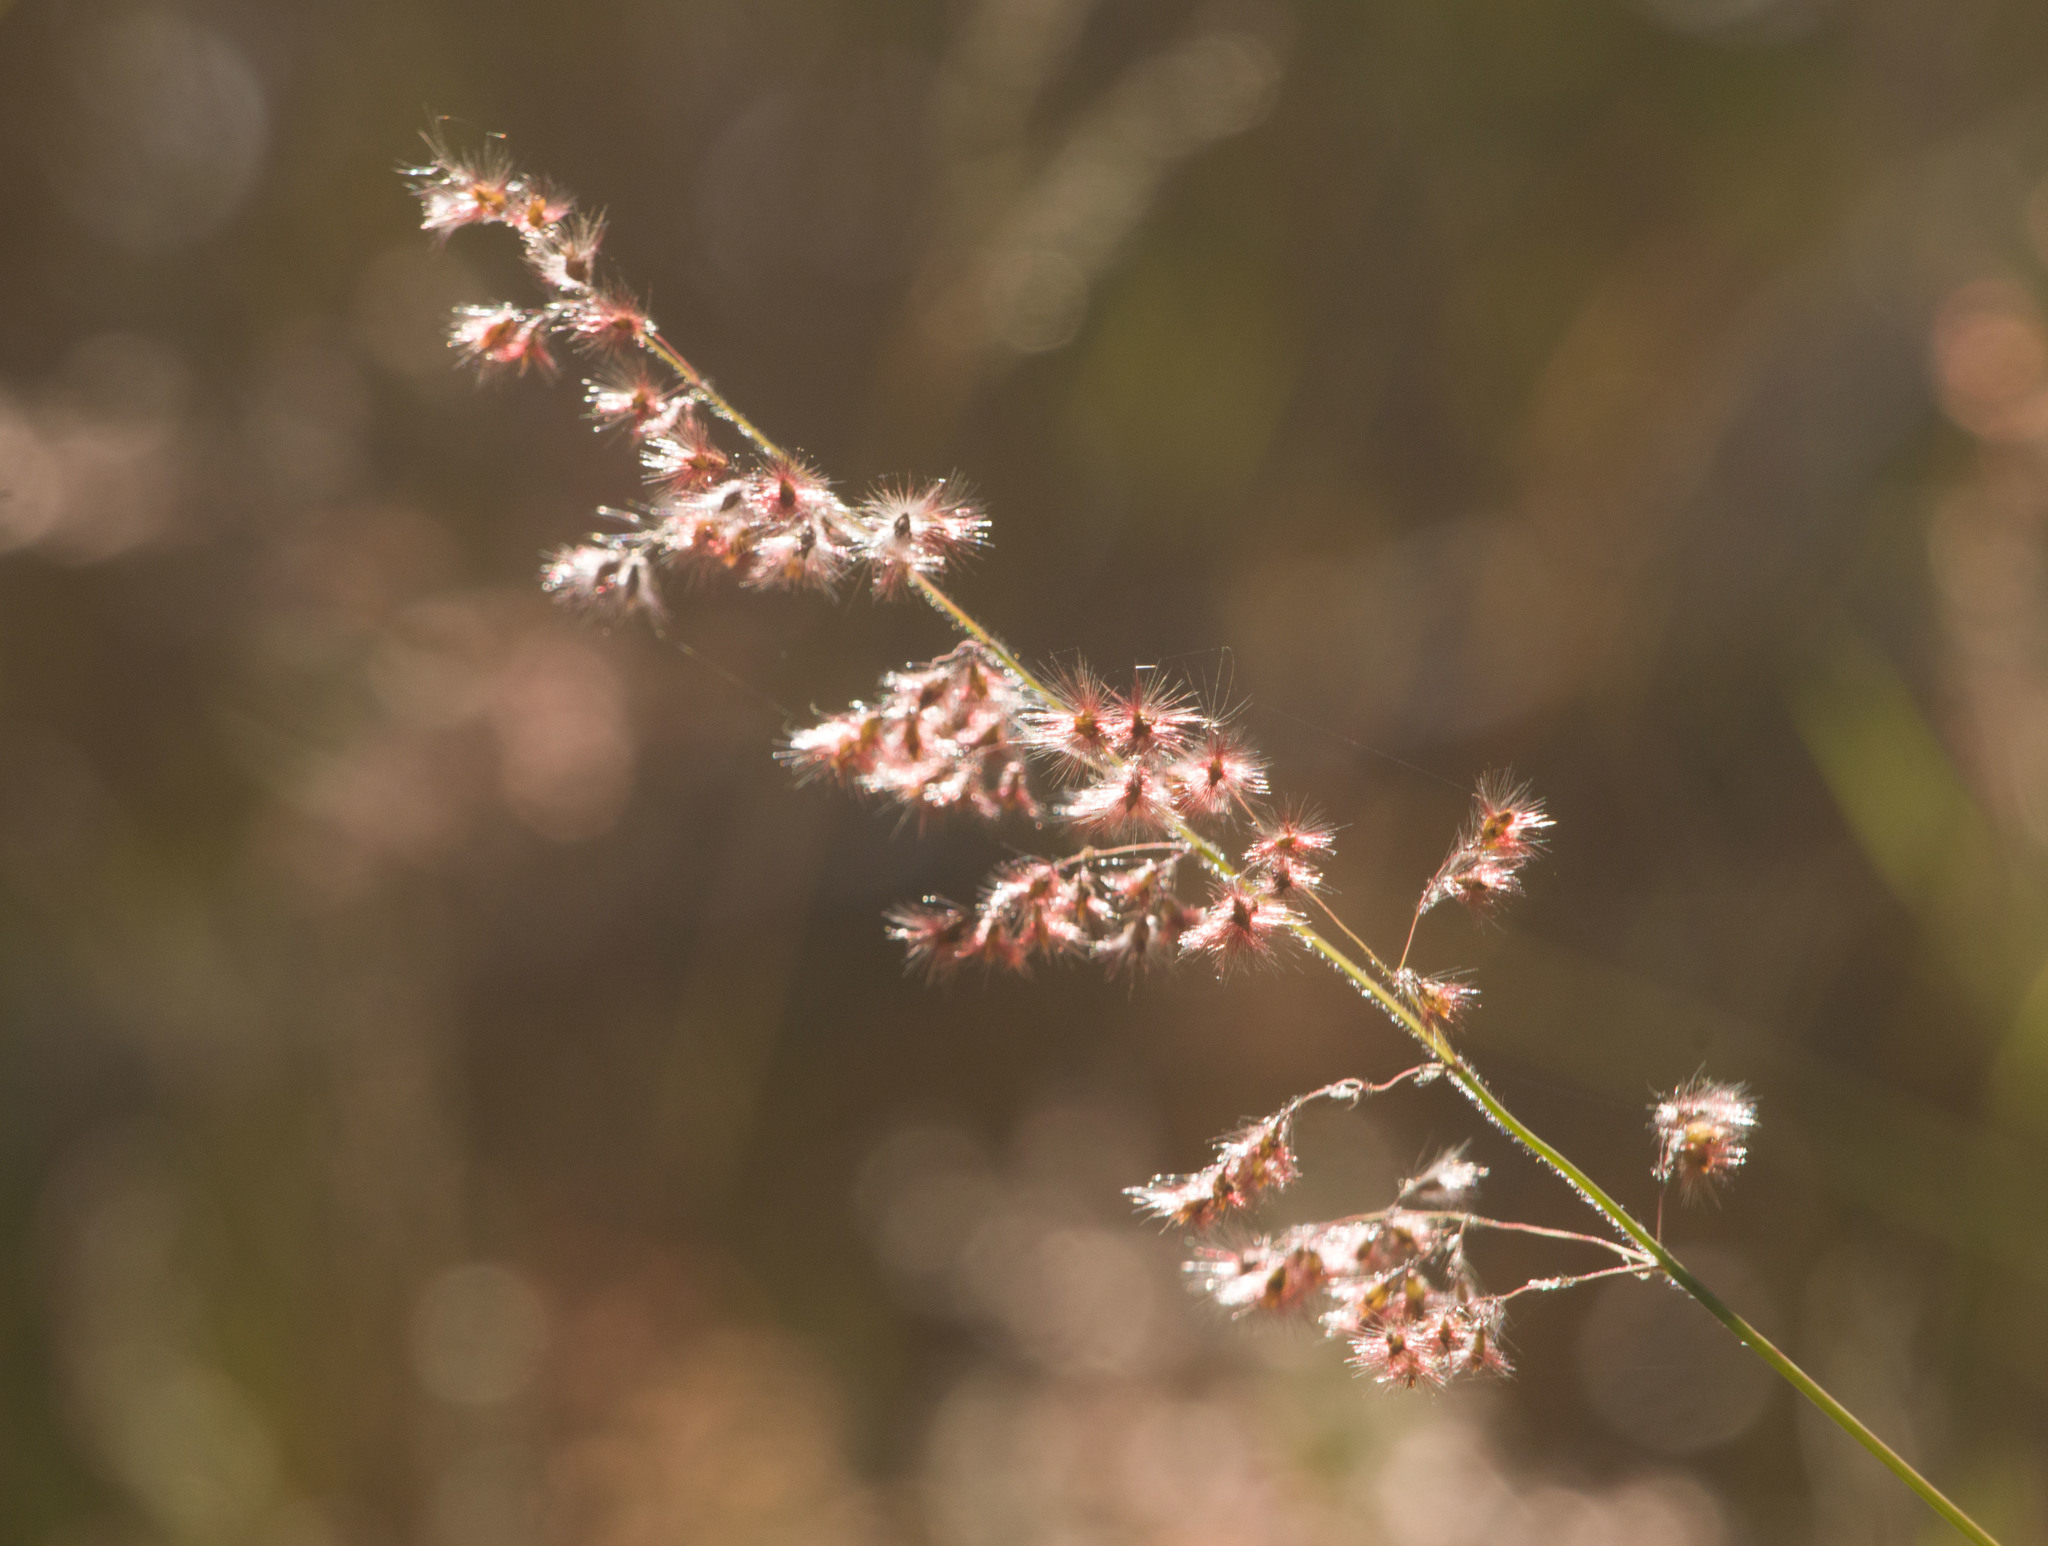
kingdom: Plantae
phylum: Tracheophyta
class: Liliopsida
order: Poales
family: Poaceae
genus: Melinis
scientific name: Melinis repens
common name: Rose natal grass
